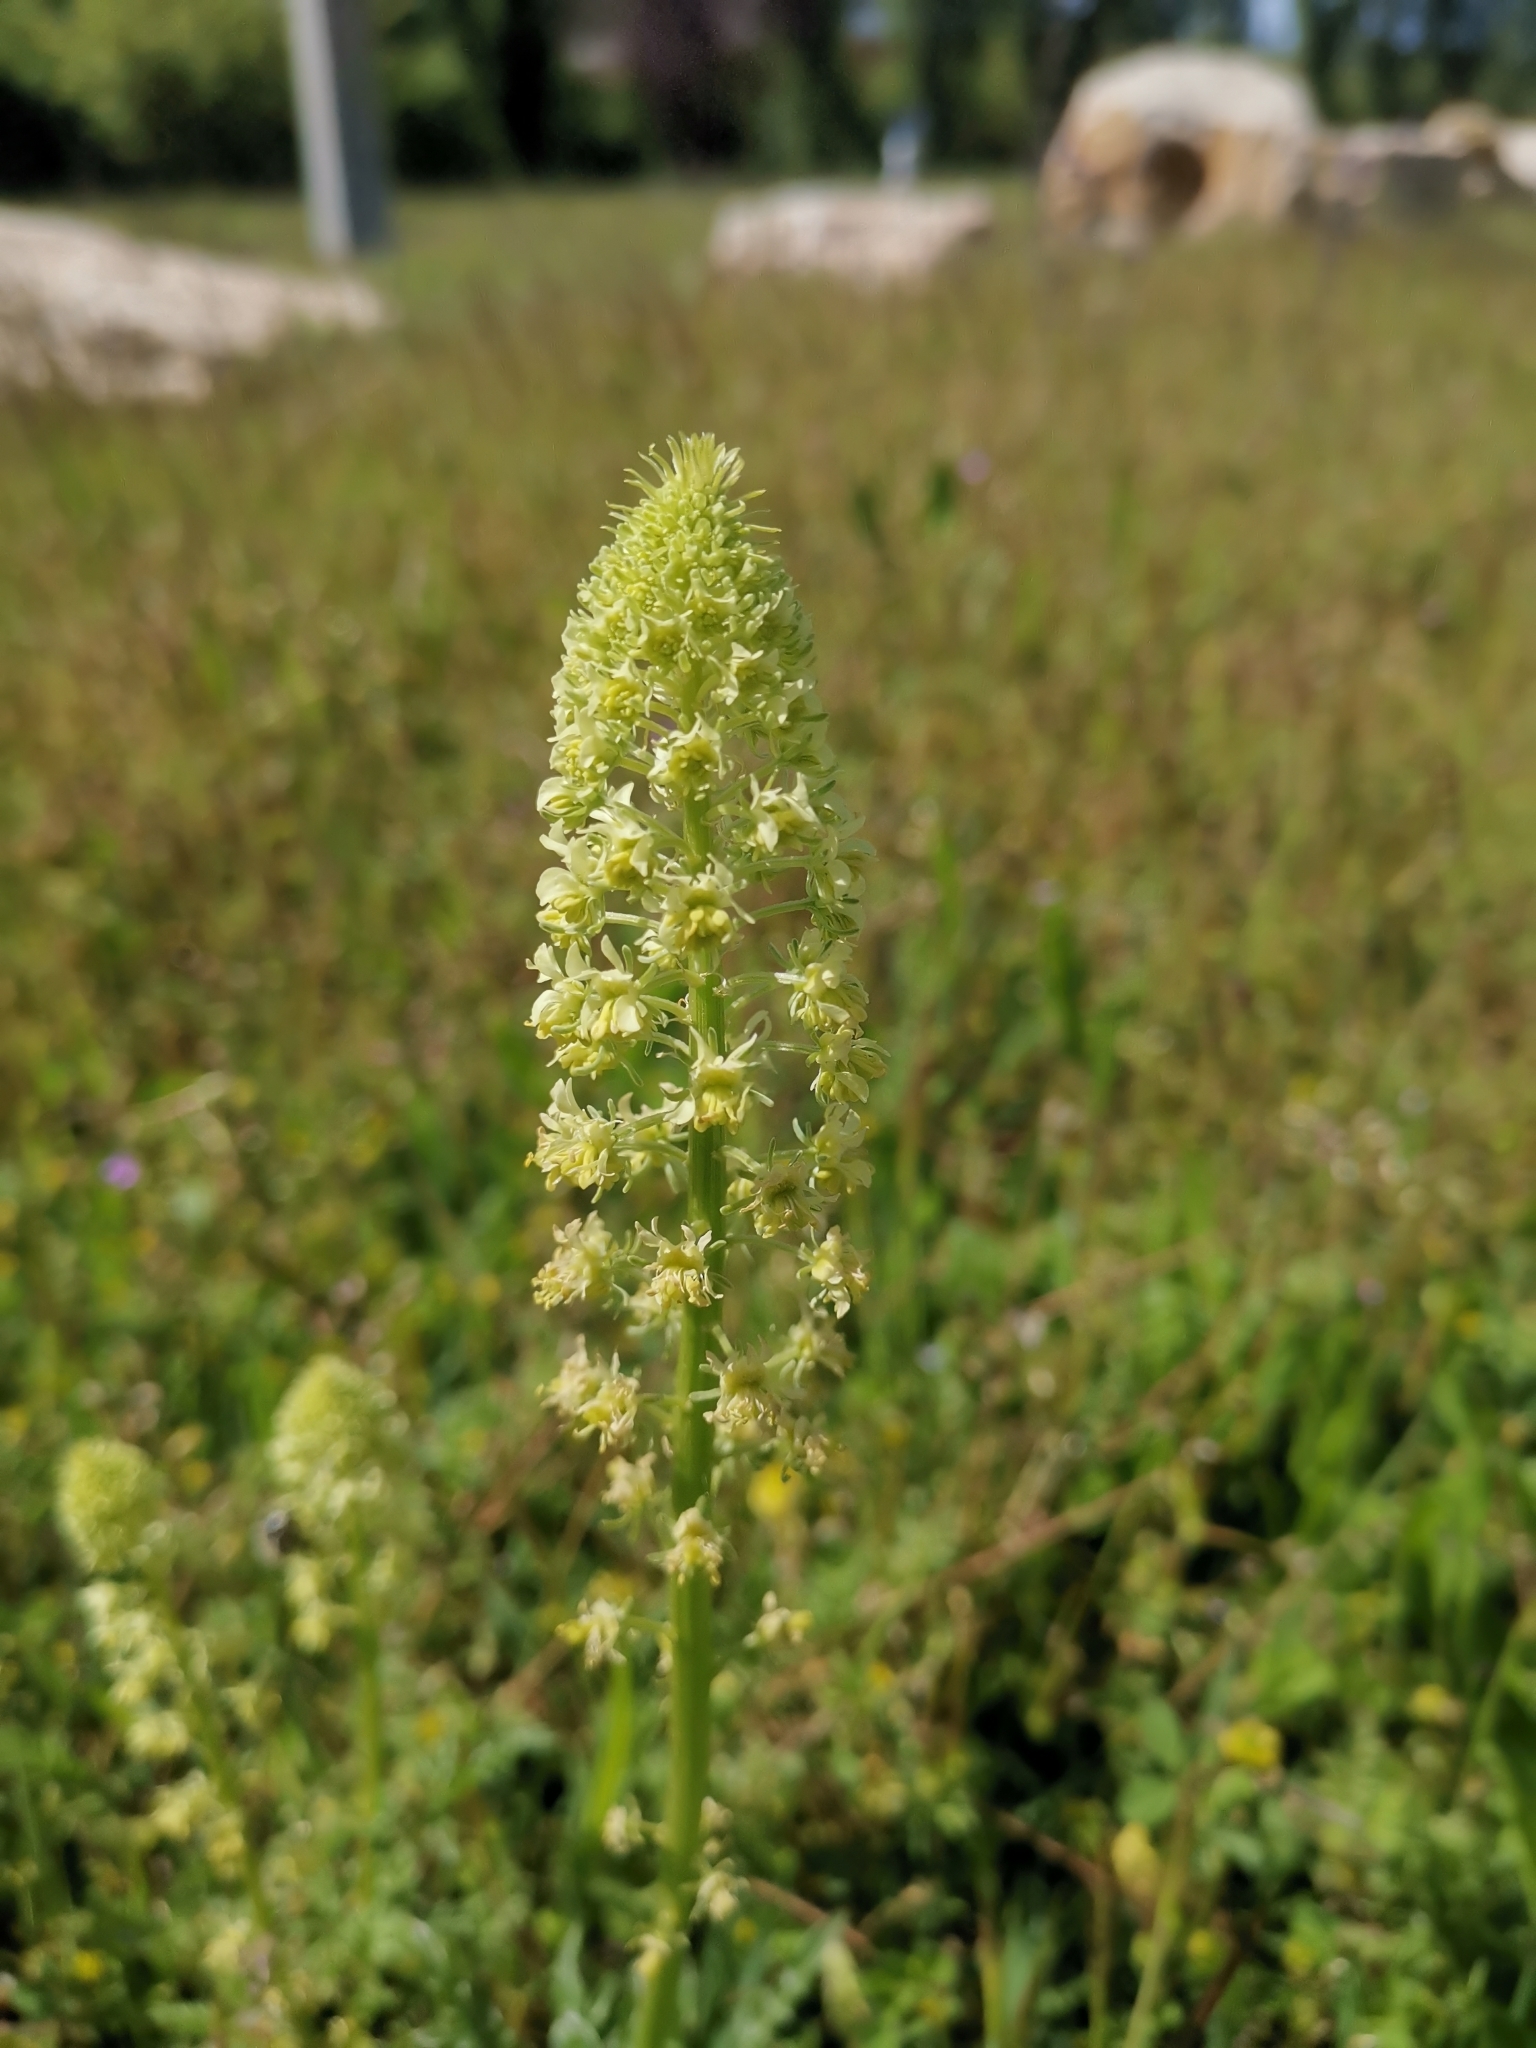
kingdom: Plantae
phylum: Tracheophyta
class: Magnoliopsida
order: Brassicales
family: Resedaceae
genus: Reseda
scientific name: Reseda lutea
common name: Wild mignonette
